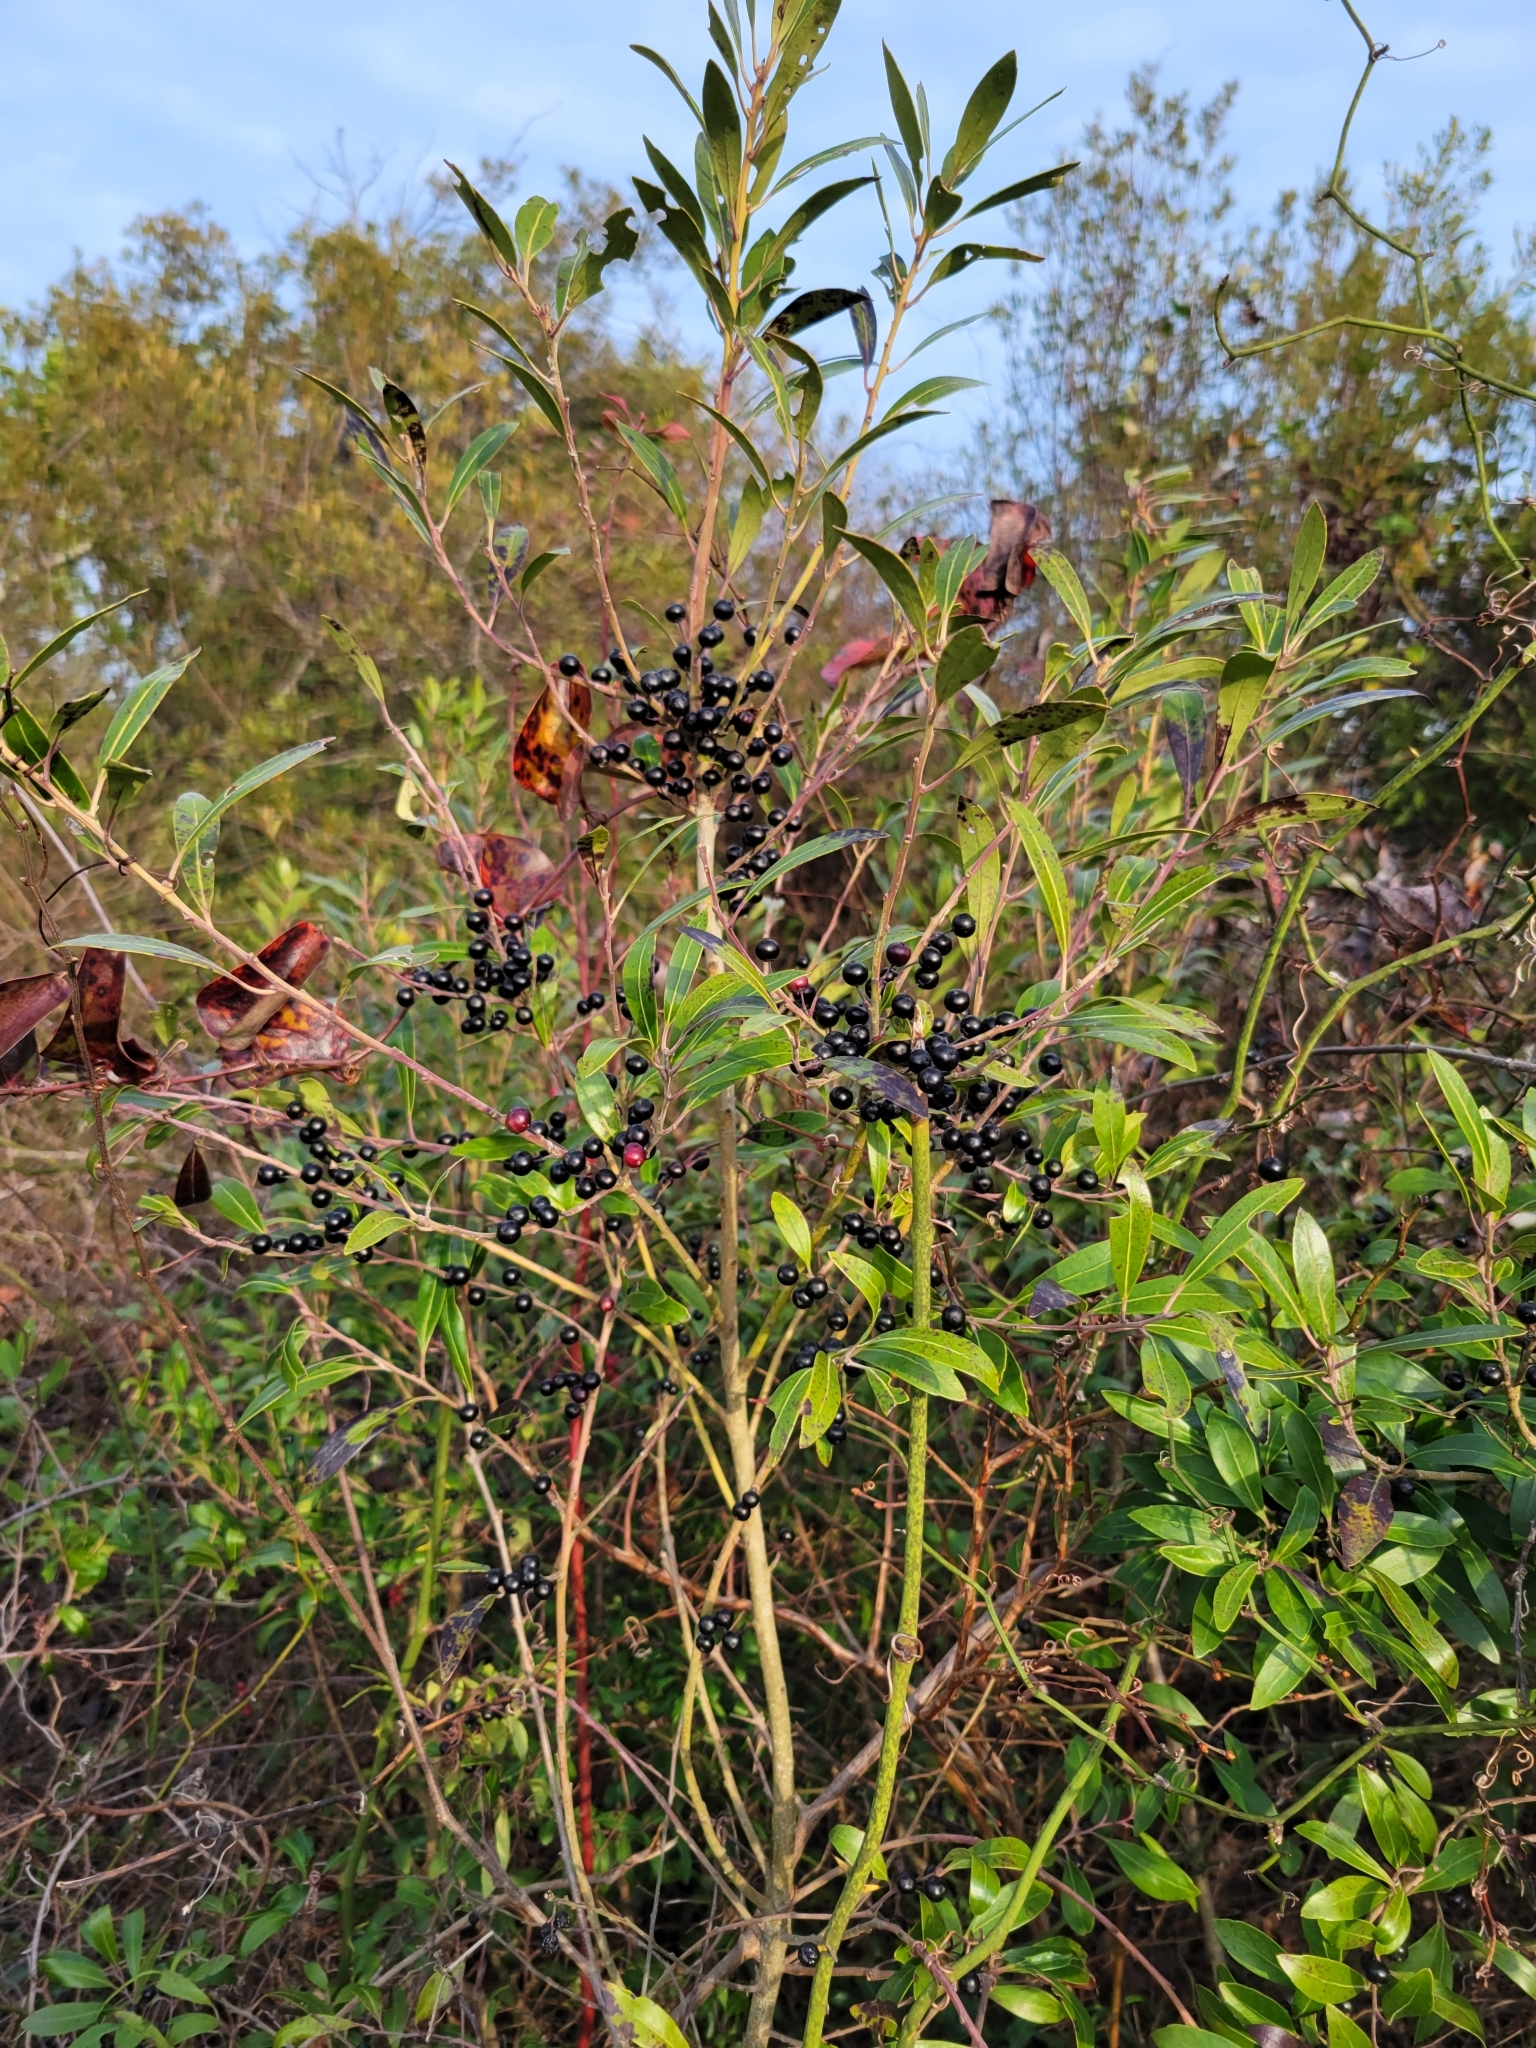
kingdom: Plantae
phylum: Tracheophyta
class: Magnoliopsida
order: Aquifoliales
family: Aquifoliaceae
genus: Ilex
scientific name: Ilex glabra
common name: Bitter gallberry
